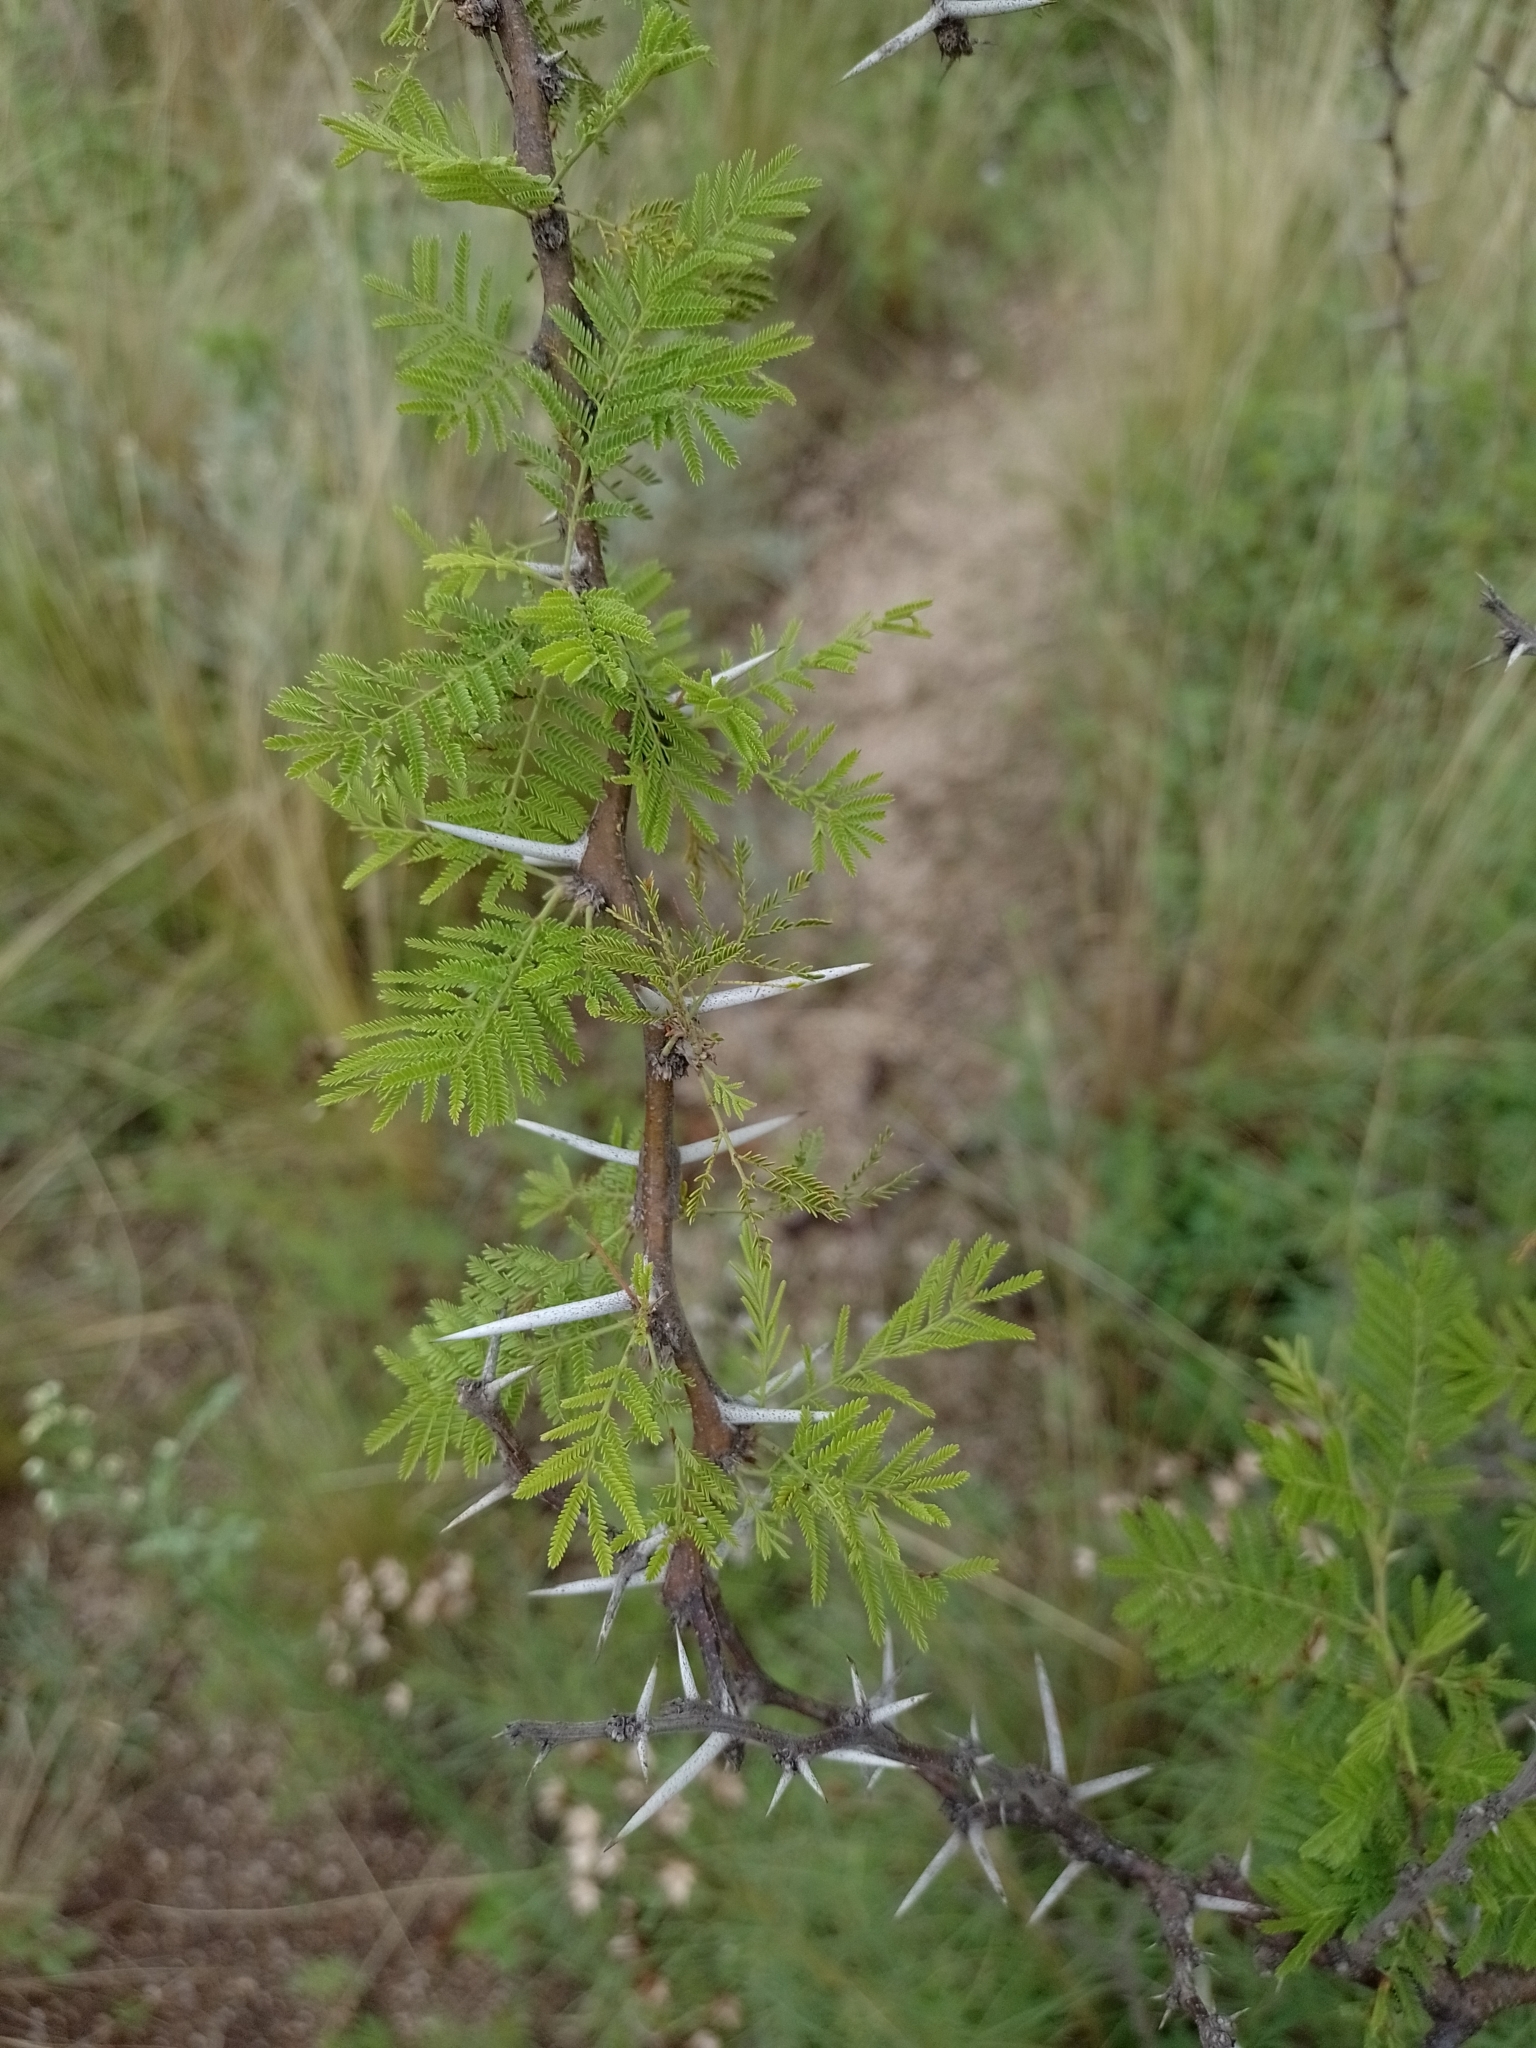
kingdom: Plantae
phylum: Tracheophyta
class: Magnoliopsida
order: Fabales
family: Fabaceae
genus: Vachellia
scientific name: Vachellia caven
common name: Roman cassie
